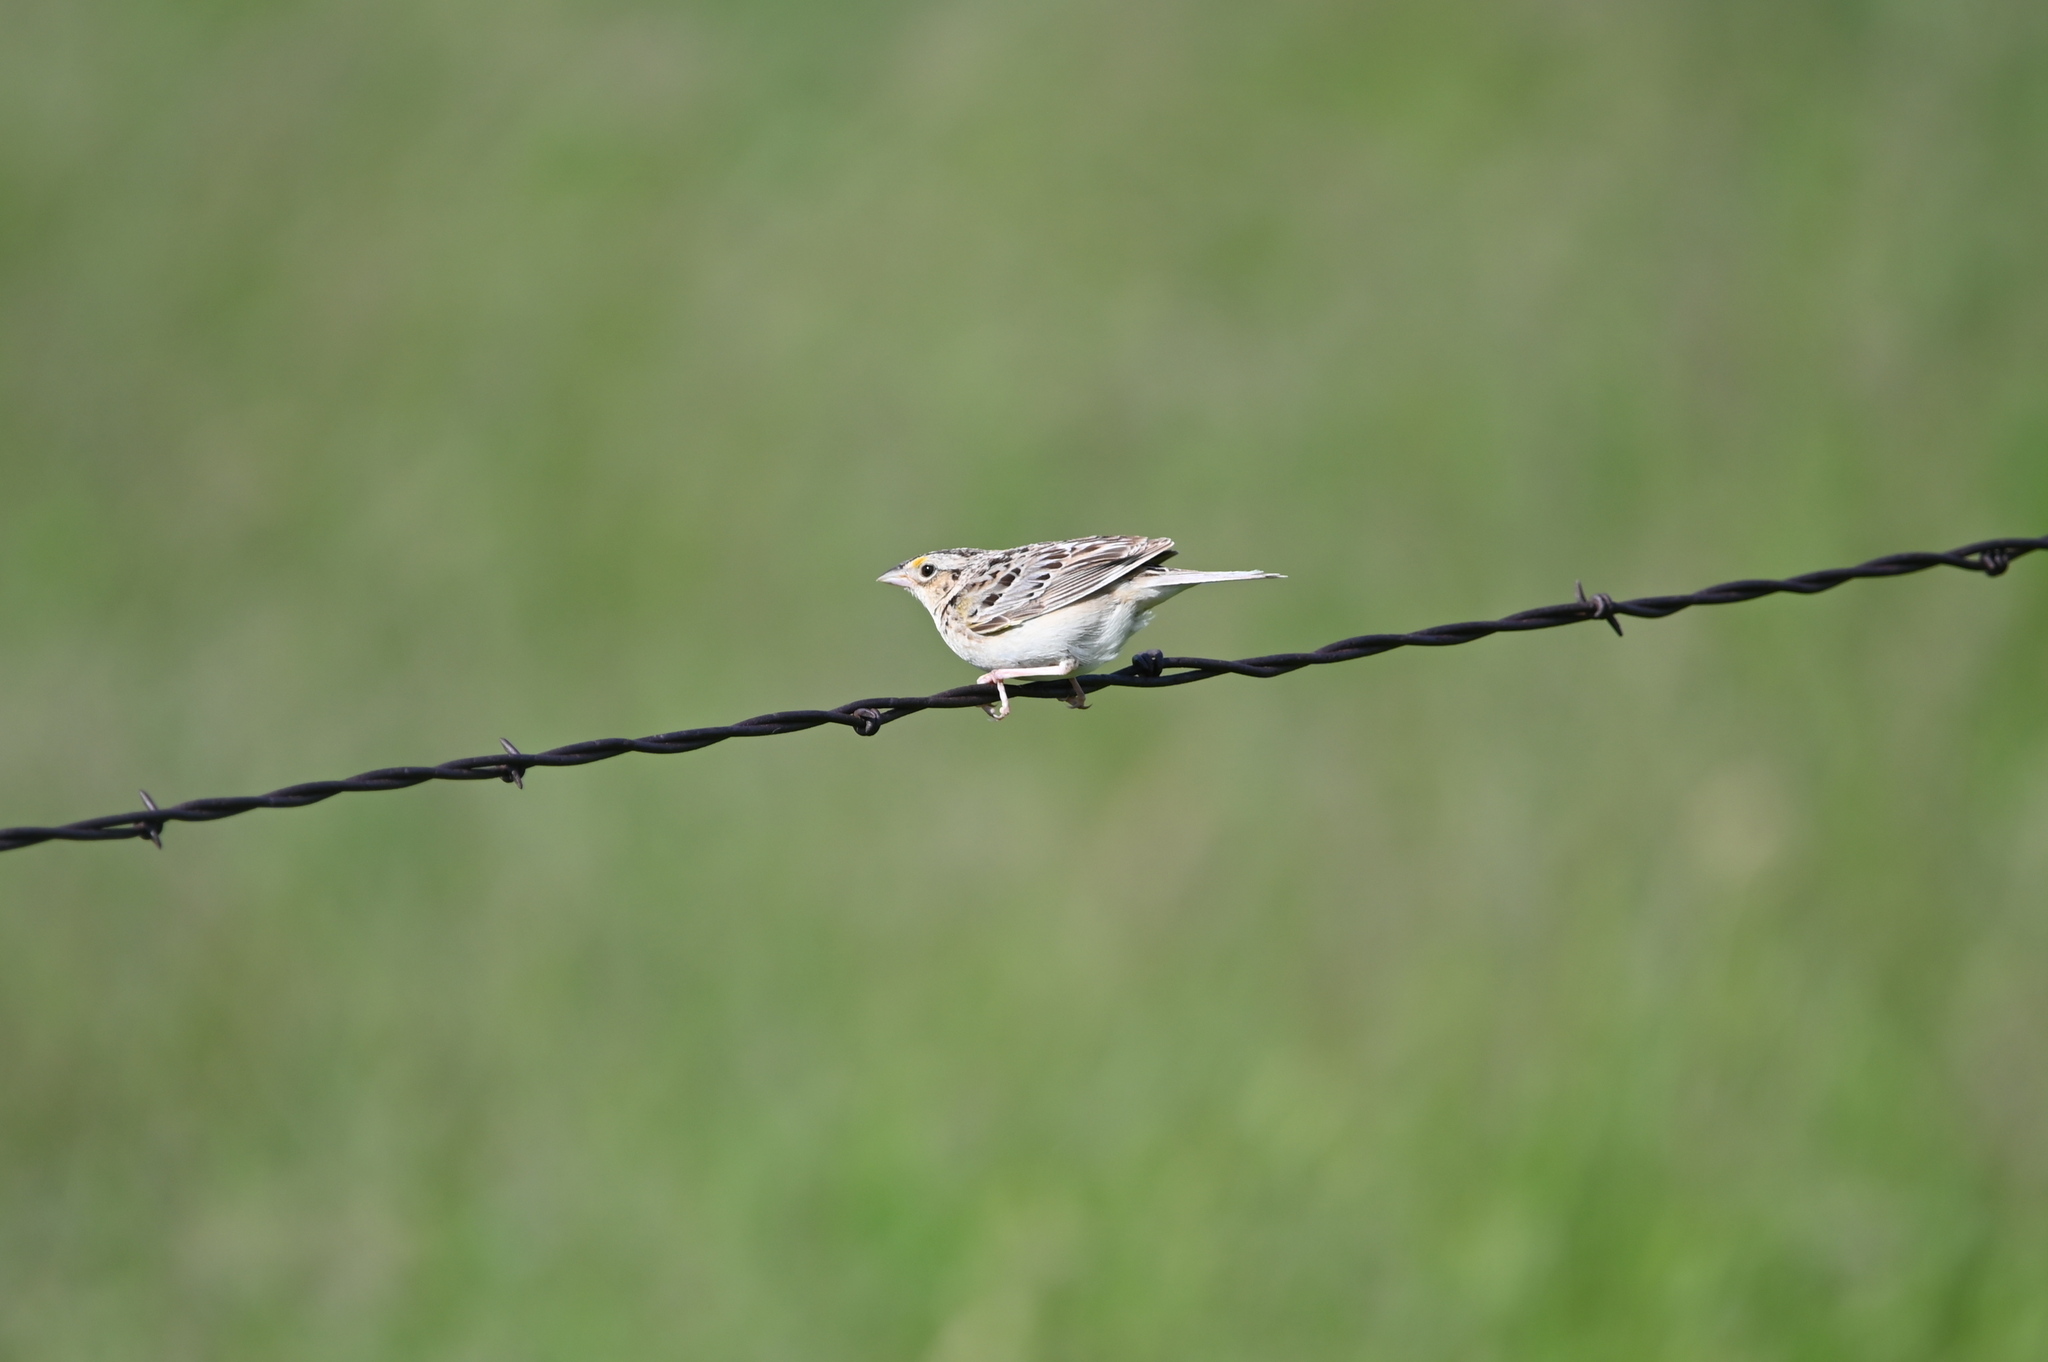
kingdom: Animalia
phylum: Chordata
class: Aves
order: Passeriformes
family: Passerellidae
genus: Ammodramus
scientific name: Ammodramus savannarum
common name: Grasshopper sparrow
